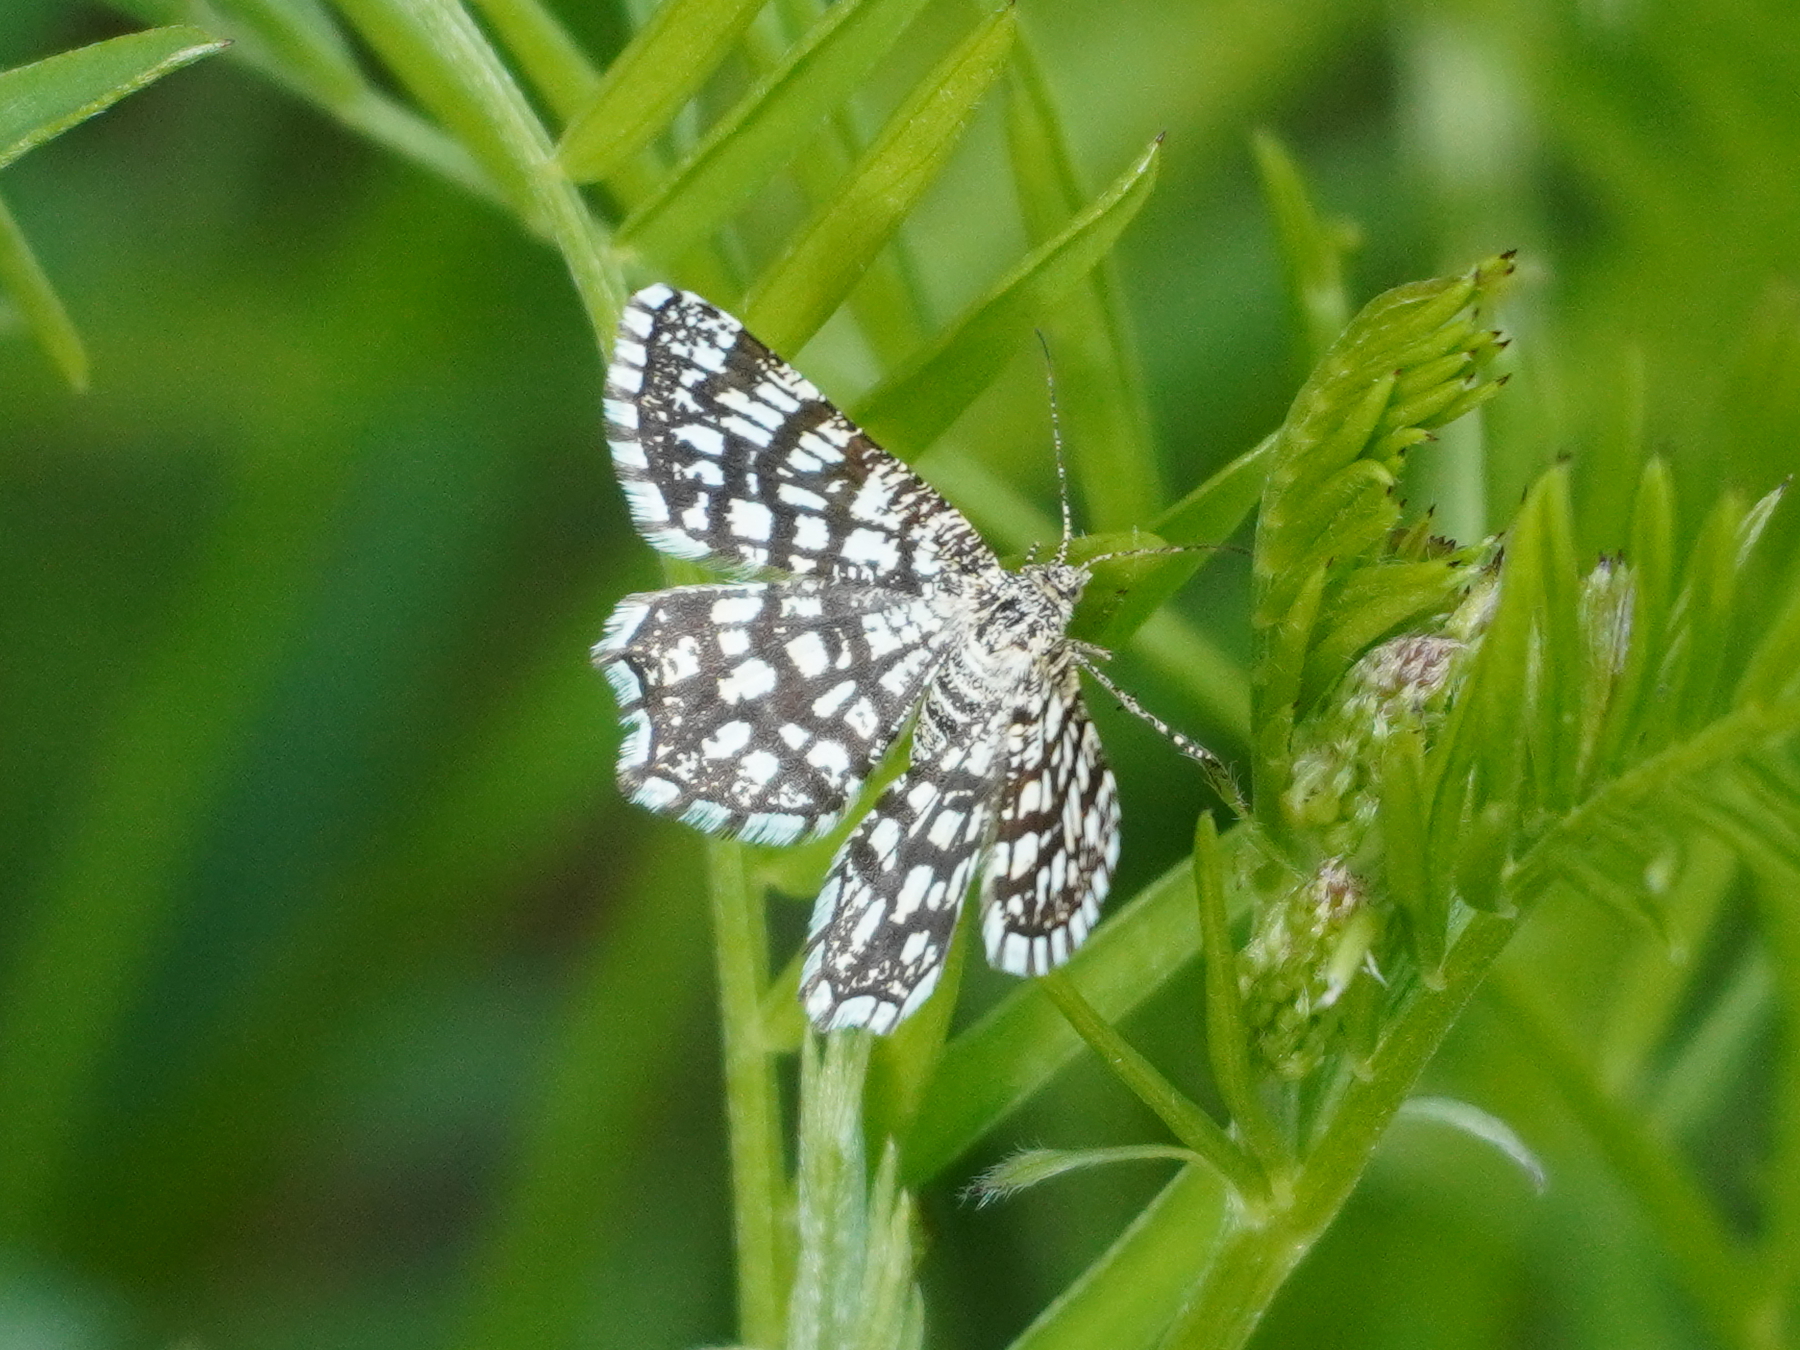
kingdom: Animalia
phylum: Arthropoda
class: Insecta
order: Lepidoptera
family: Geometridae
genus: Chiasmia
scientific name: Chiasmia clathrata
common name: Latticed heath
